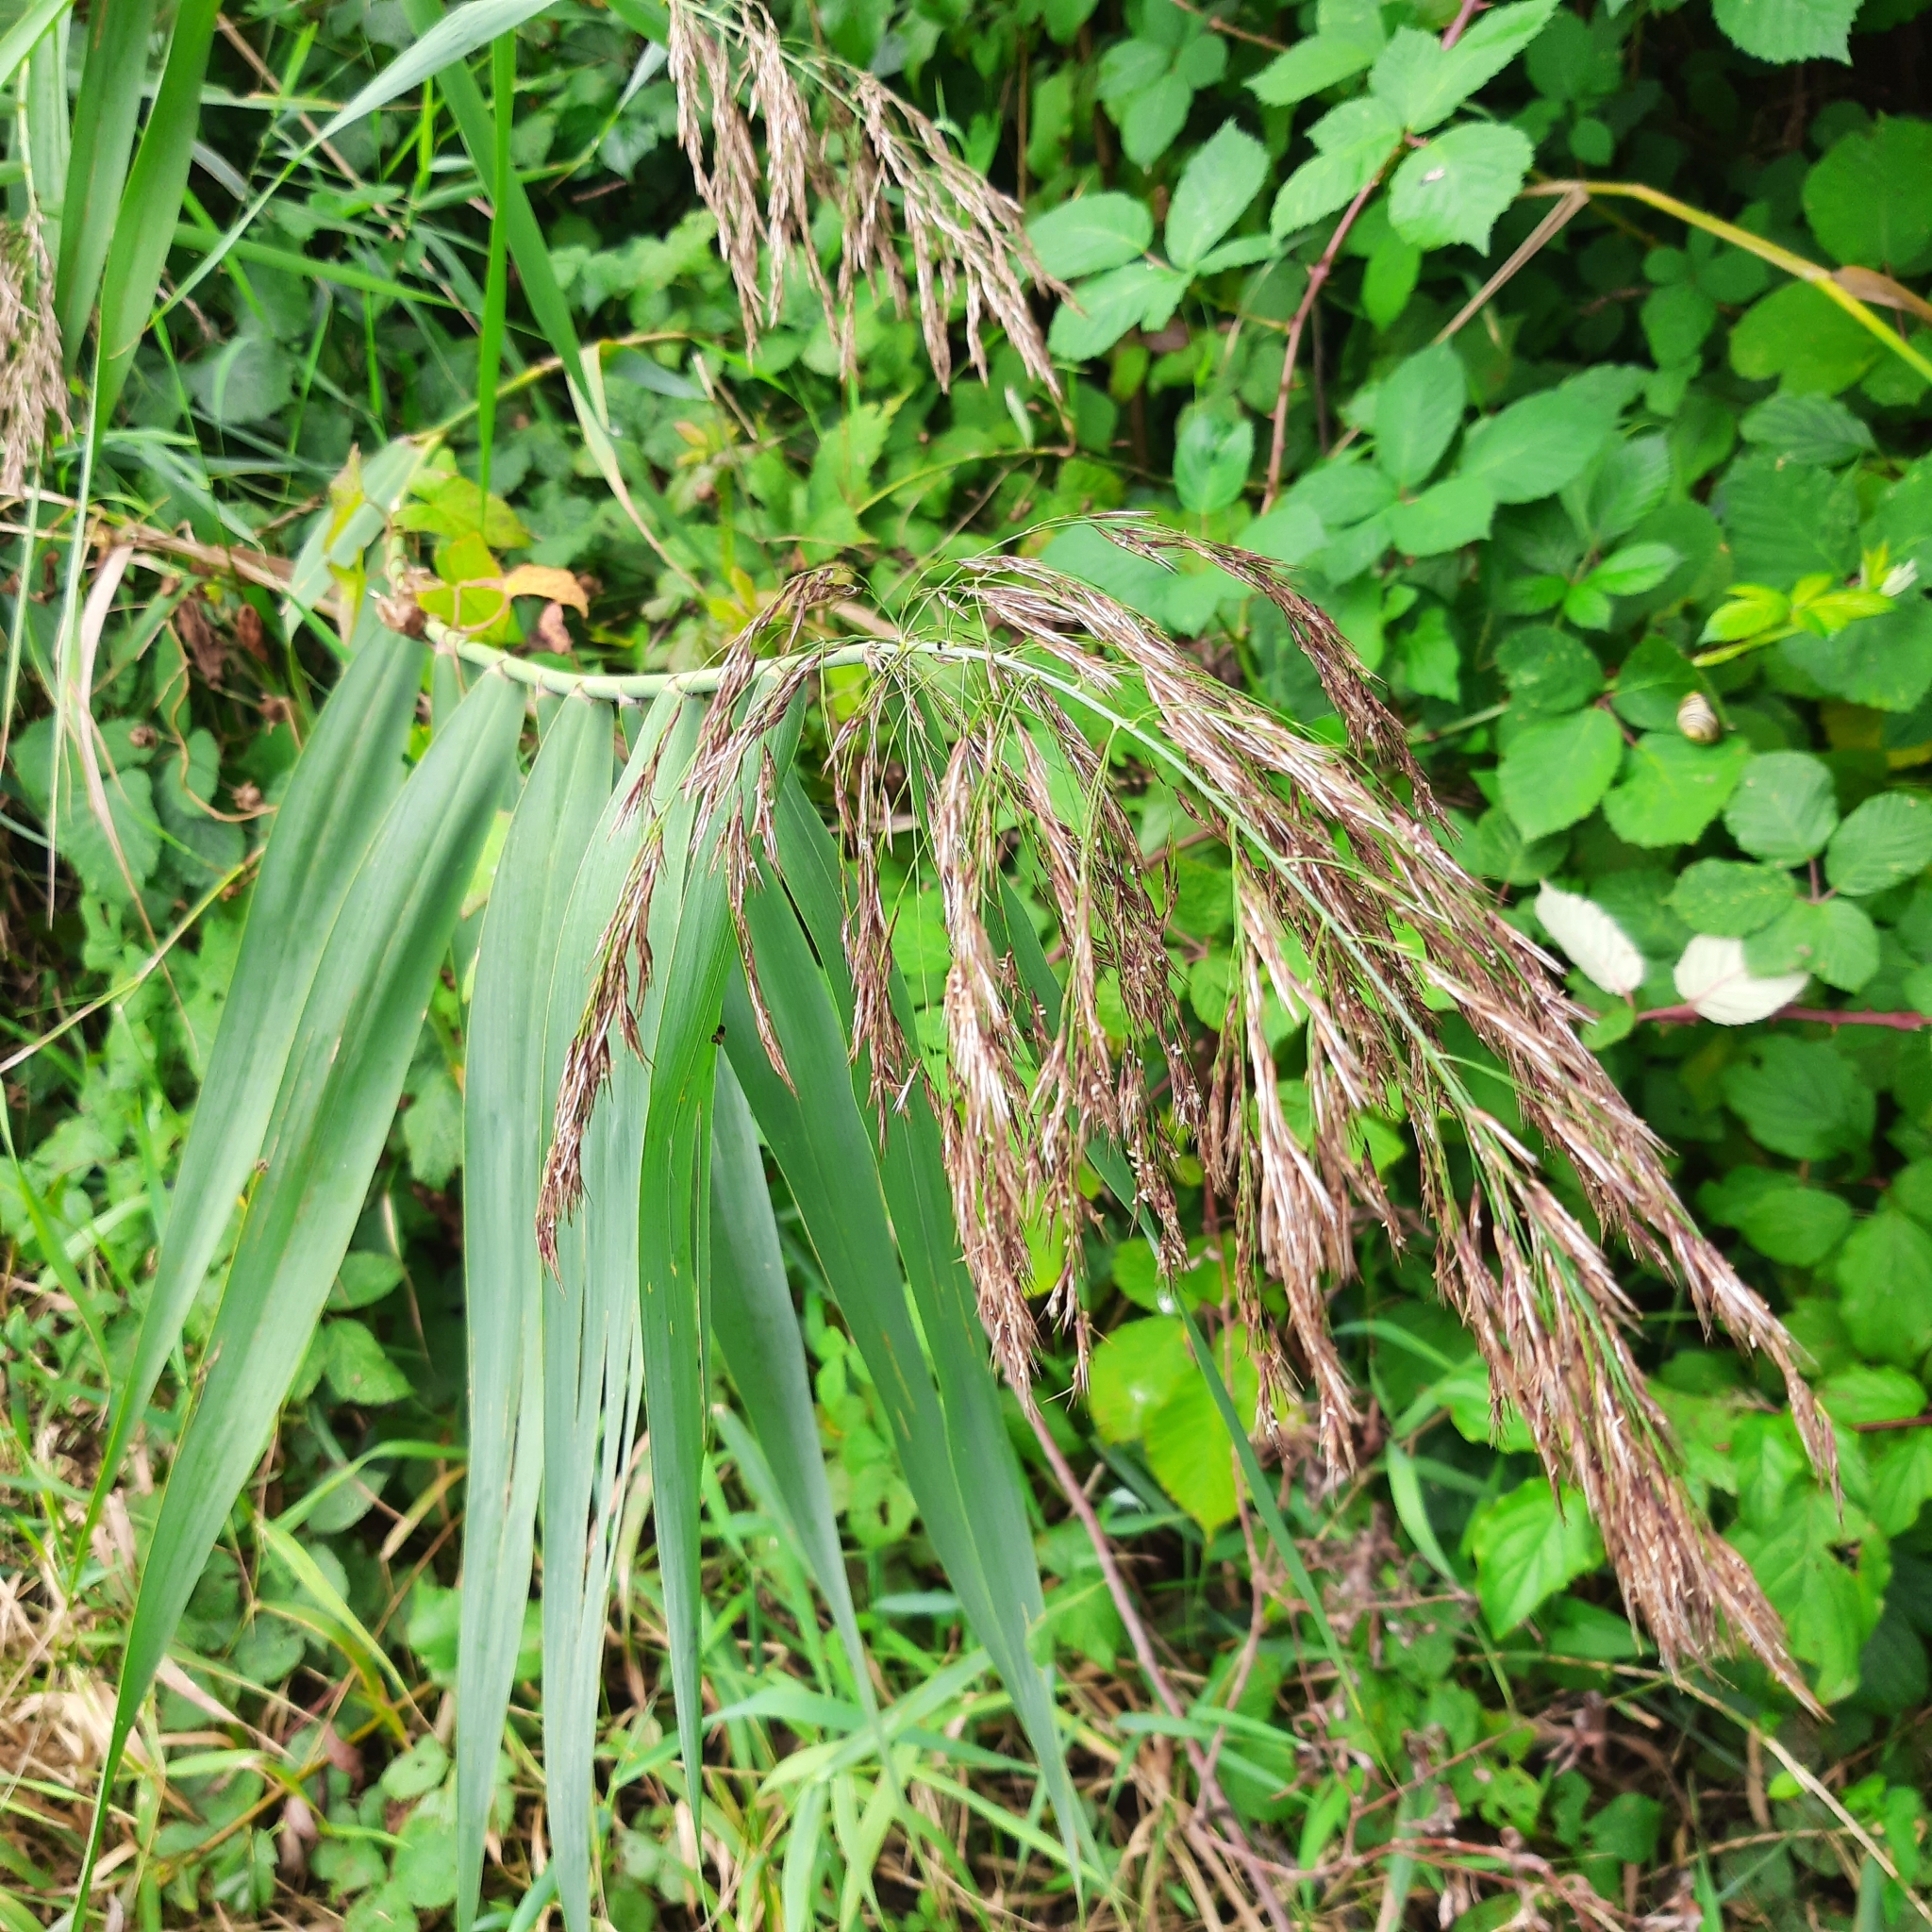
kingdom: Plantae
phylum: Tracheophyta
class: Liliopsida
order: Poales
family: Poaceae
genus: Phragmites
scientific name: Phragmites australis
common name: Common reed
